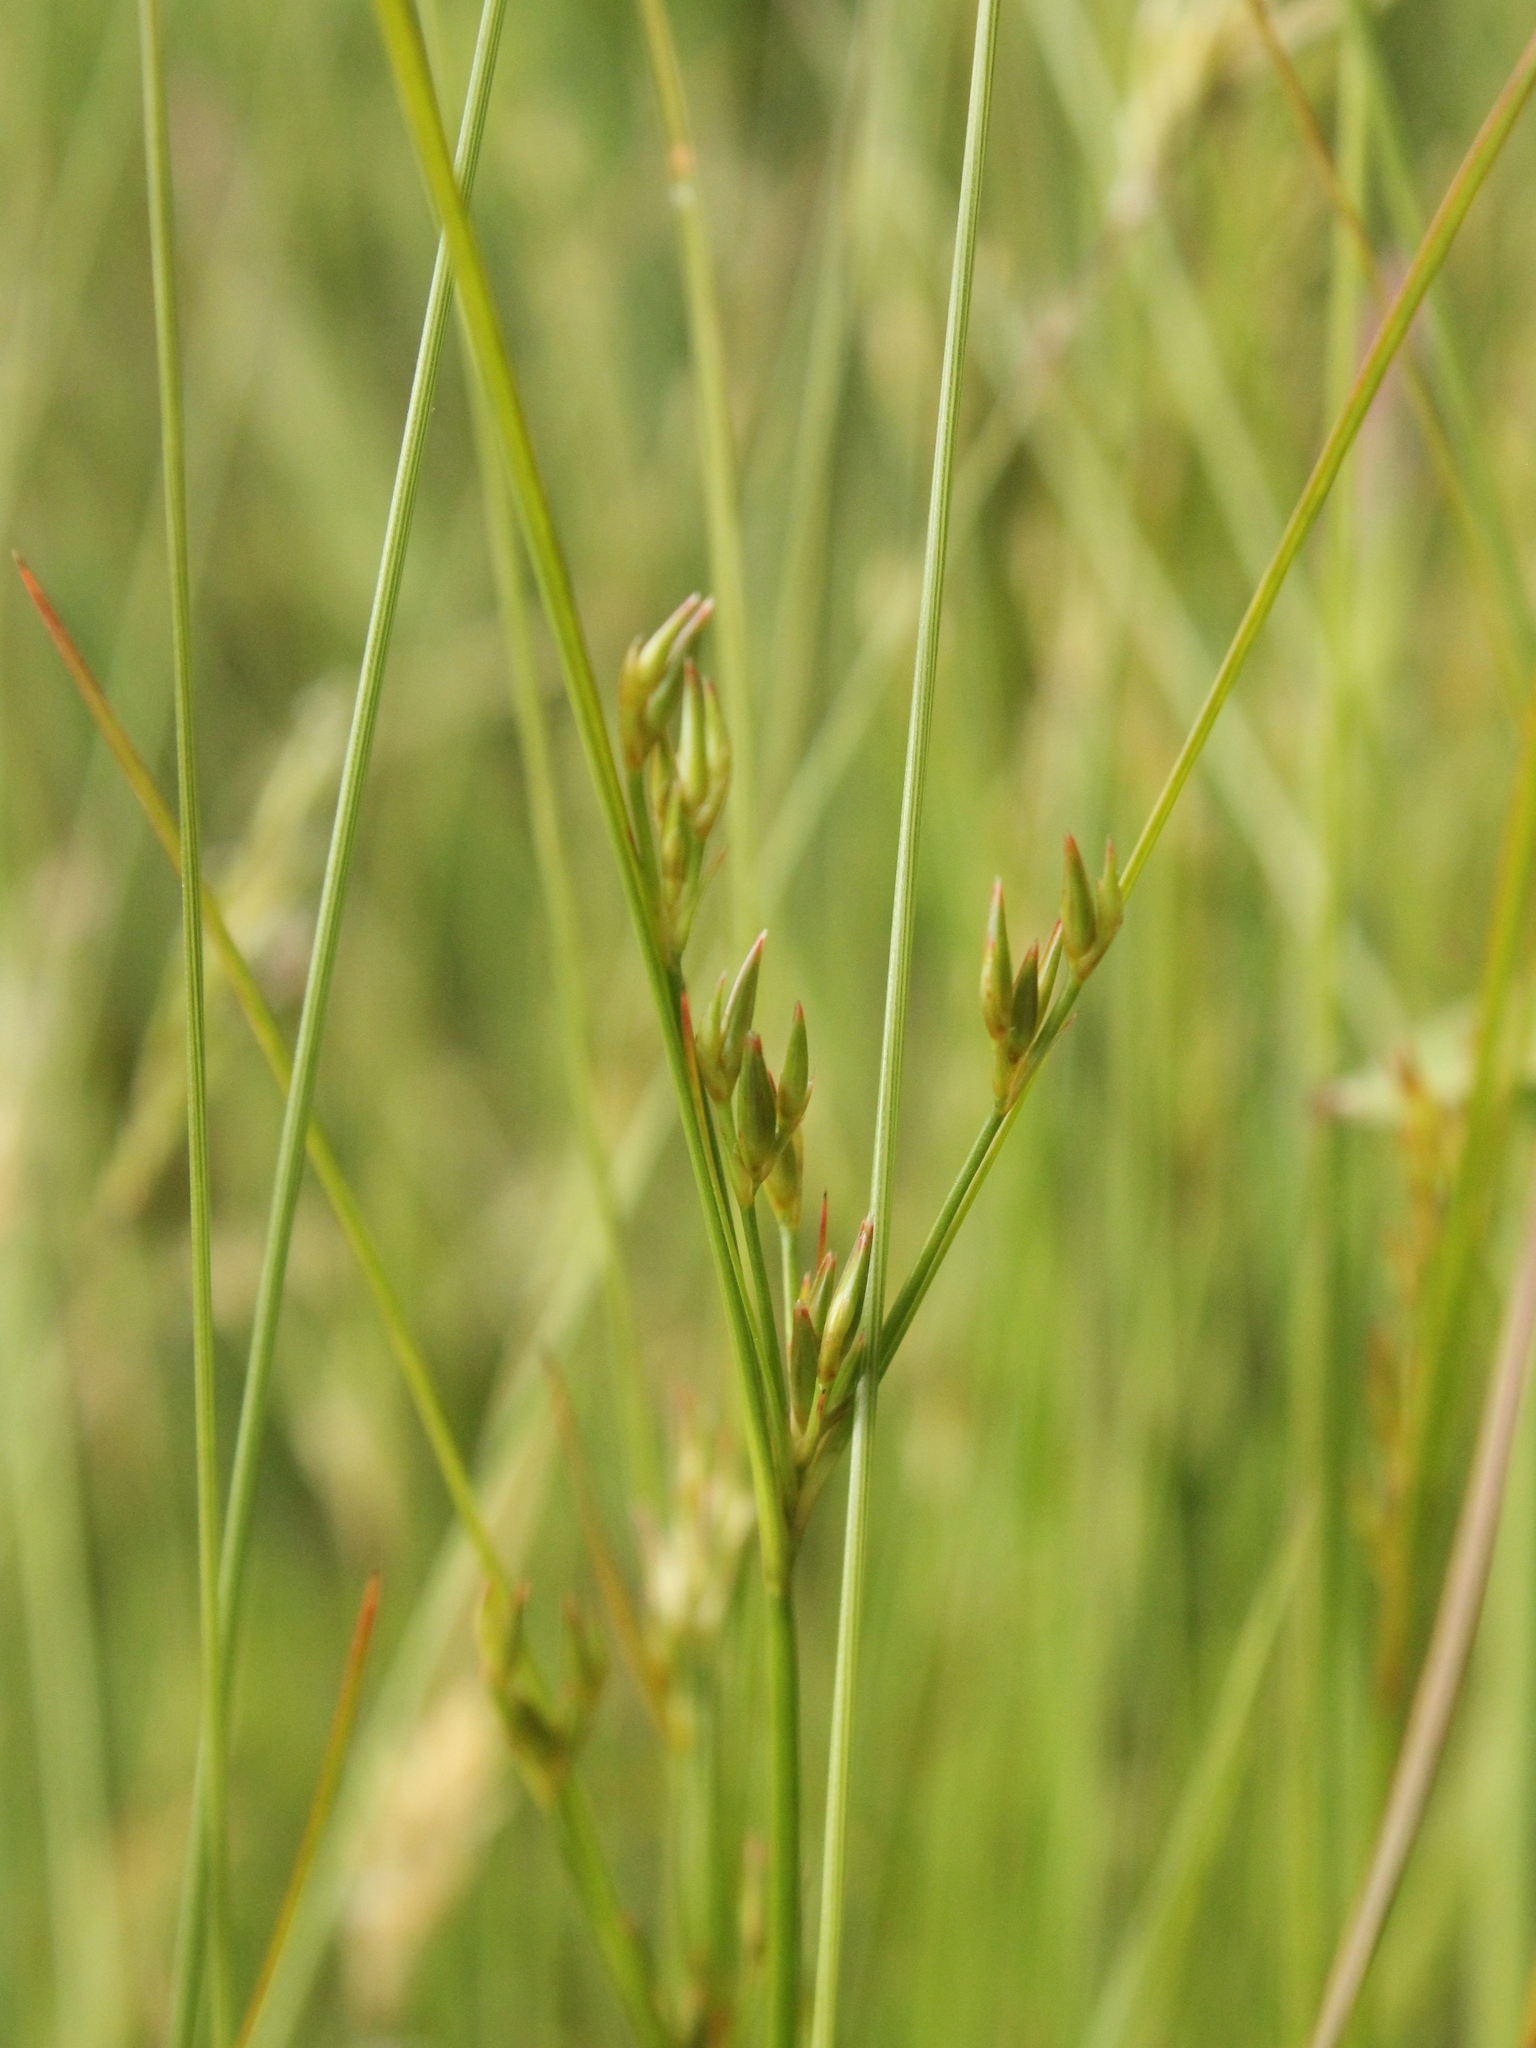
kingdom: Plantae
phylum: Tracheophyta
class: Liliopsida
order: Poales
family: Juncaceae
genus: Juncus
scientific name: Juncus tenuis
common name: Slender rush
